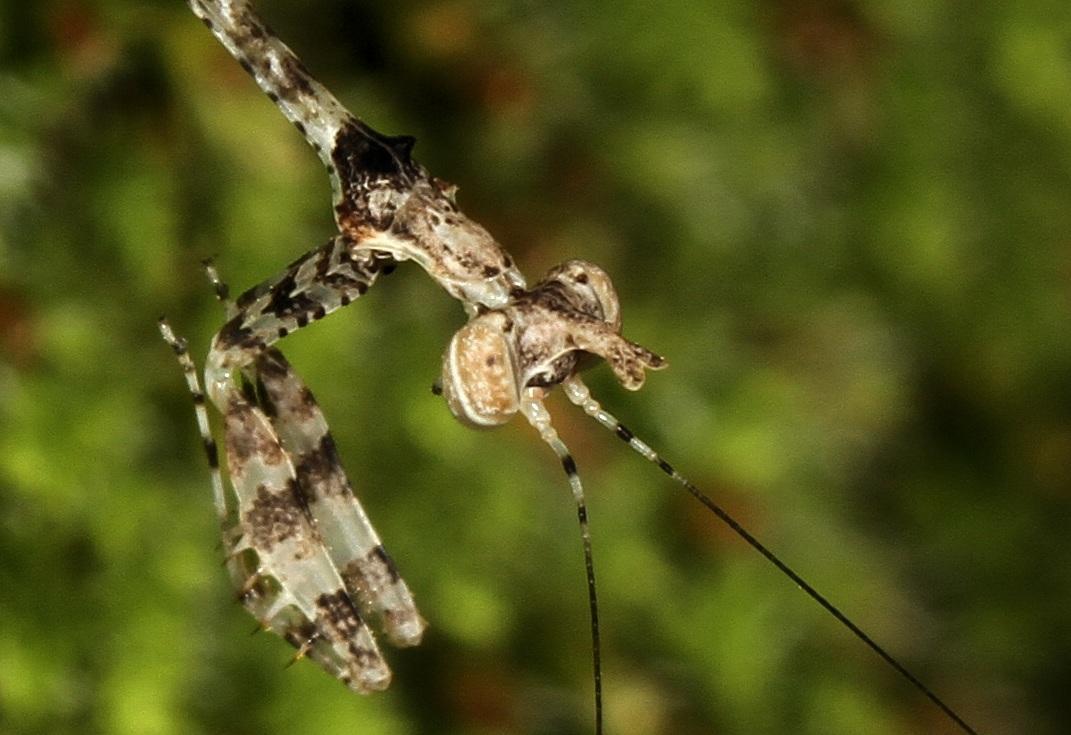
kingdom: Animalia
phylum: Arthropoda
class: Insecta
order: Mantodea
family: Hymenopodidae
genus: Sibylla
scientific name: Sibylla pretiosa
